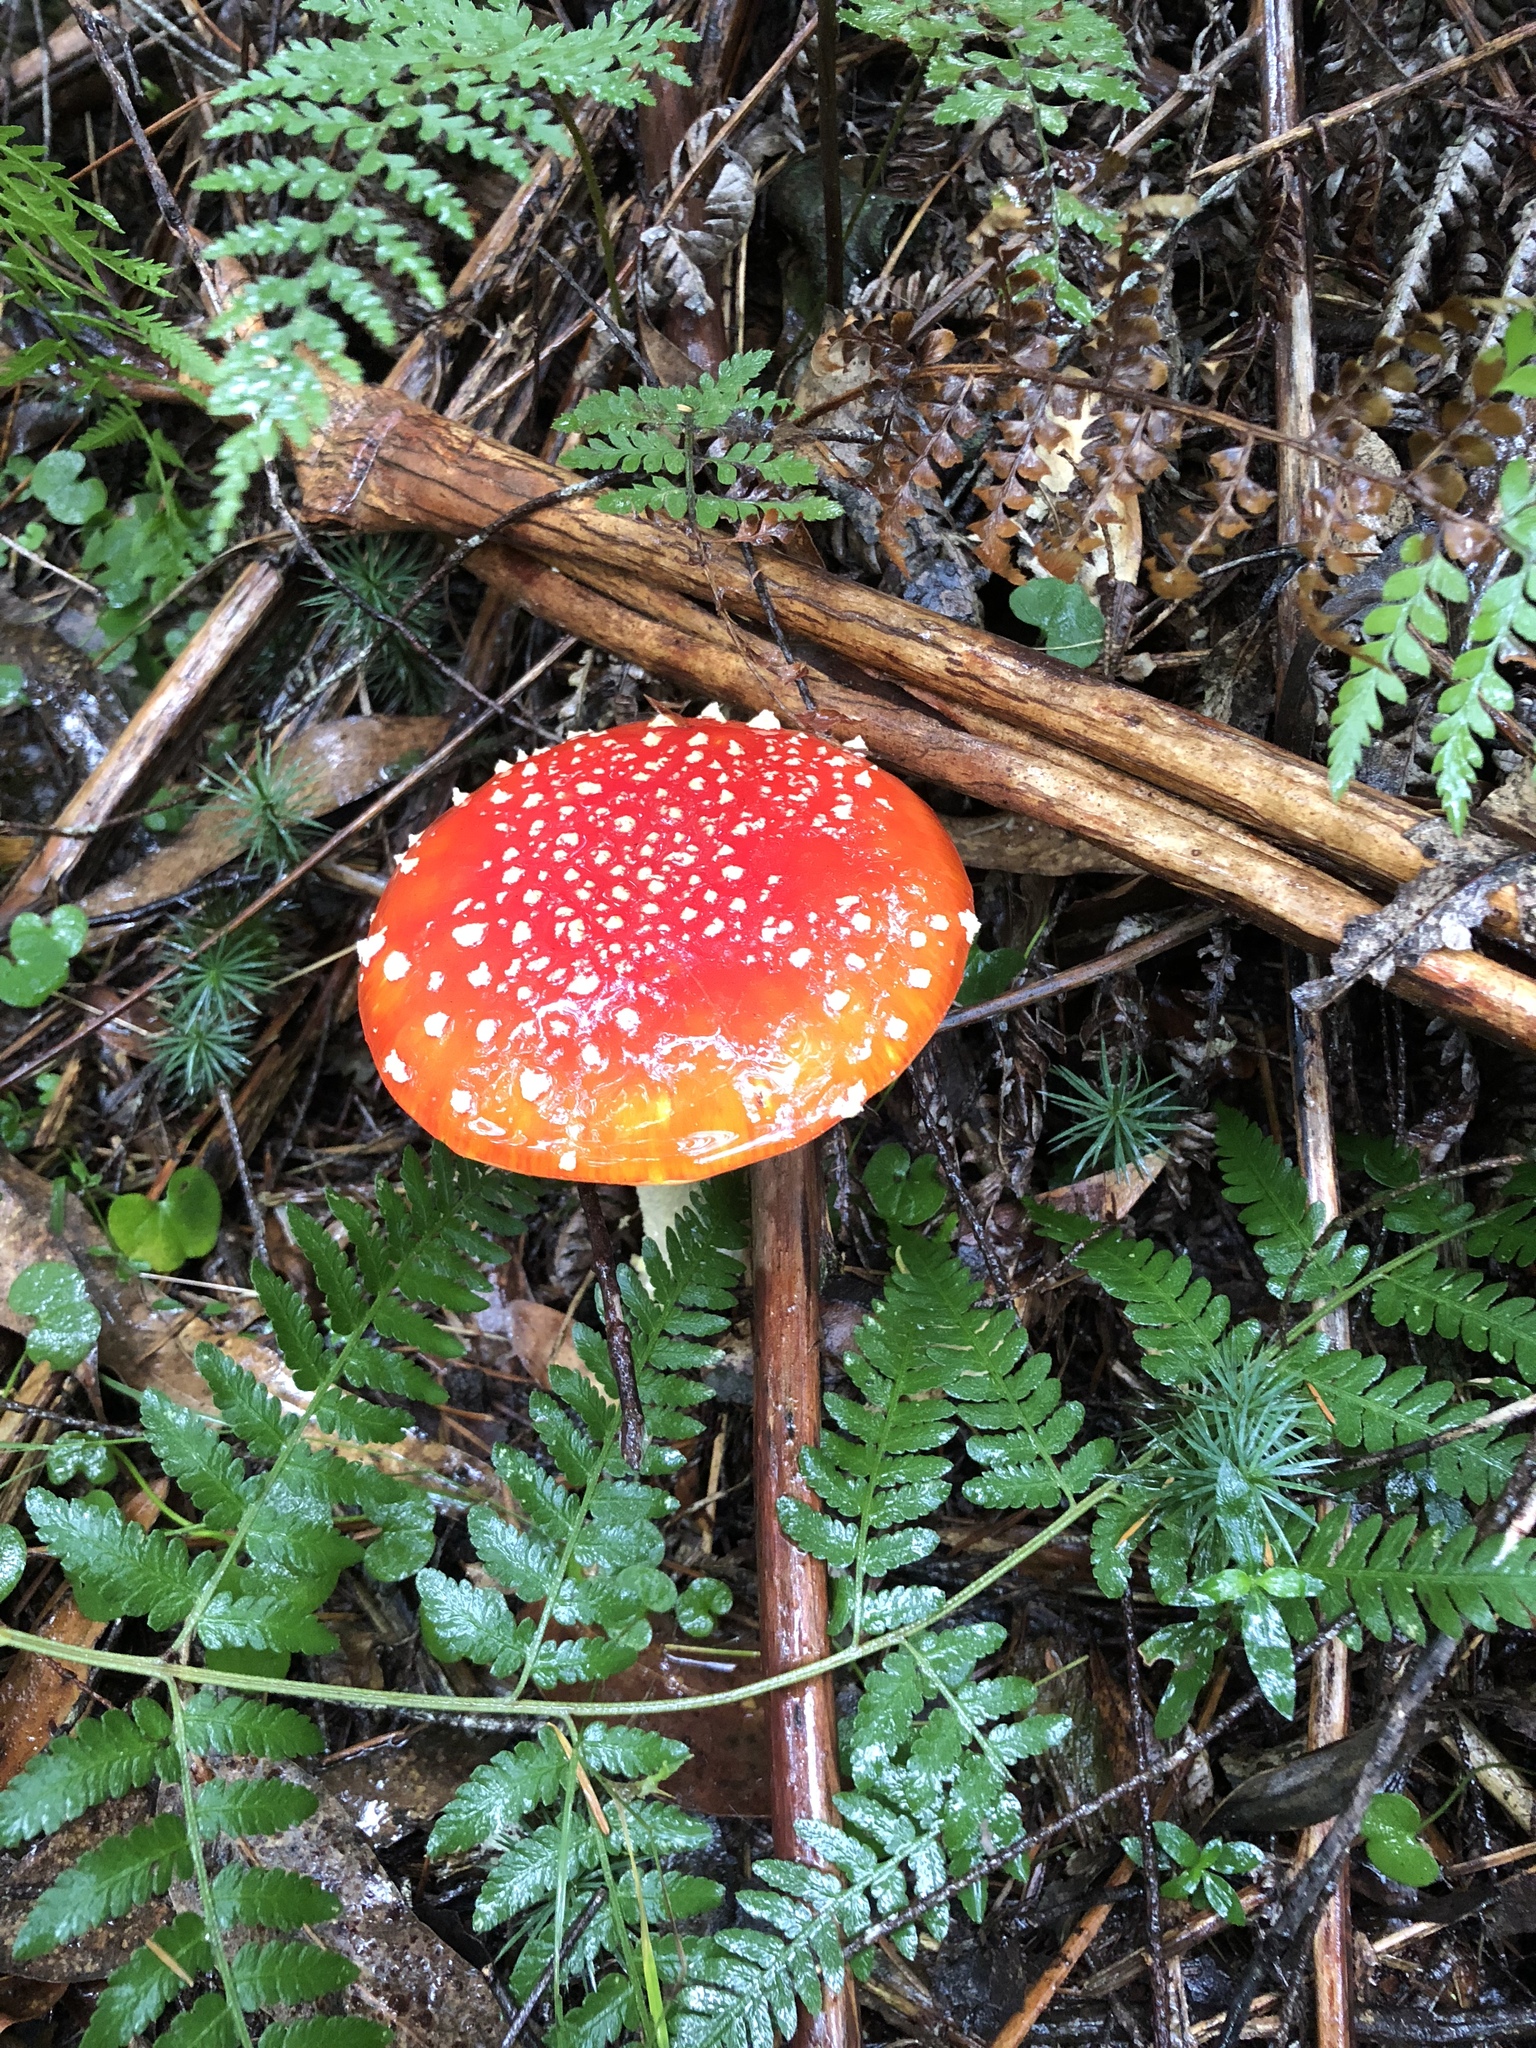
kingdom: Fungi
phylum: Basidiomycota
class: Agaricomycetes
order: Agaricales
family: Amanitaceae
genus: Amanita
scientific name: Amanita muscaria
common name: Fly agaric
